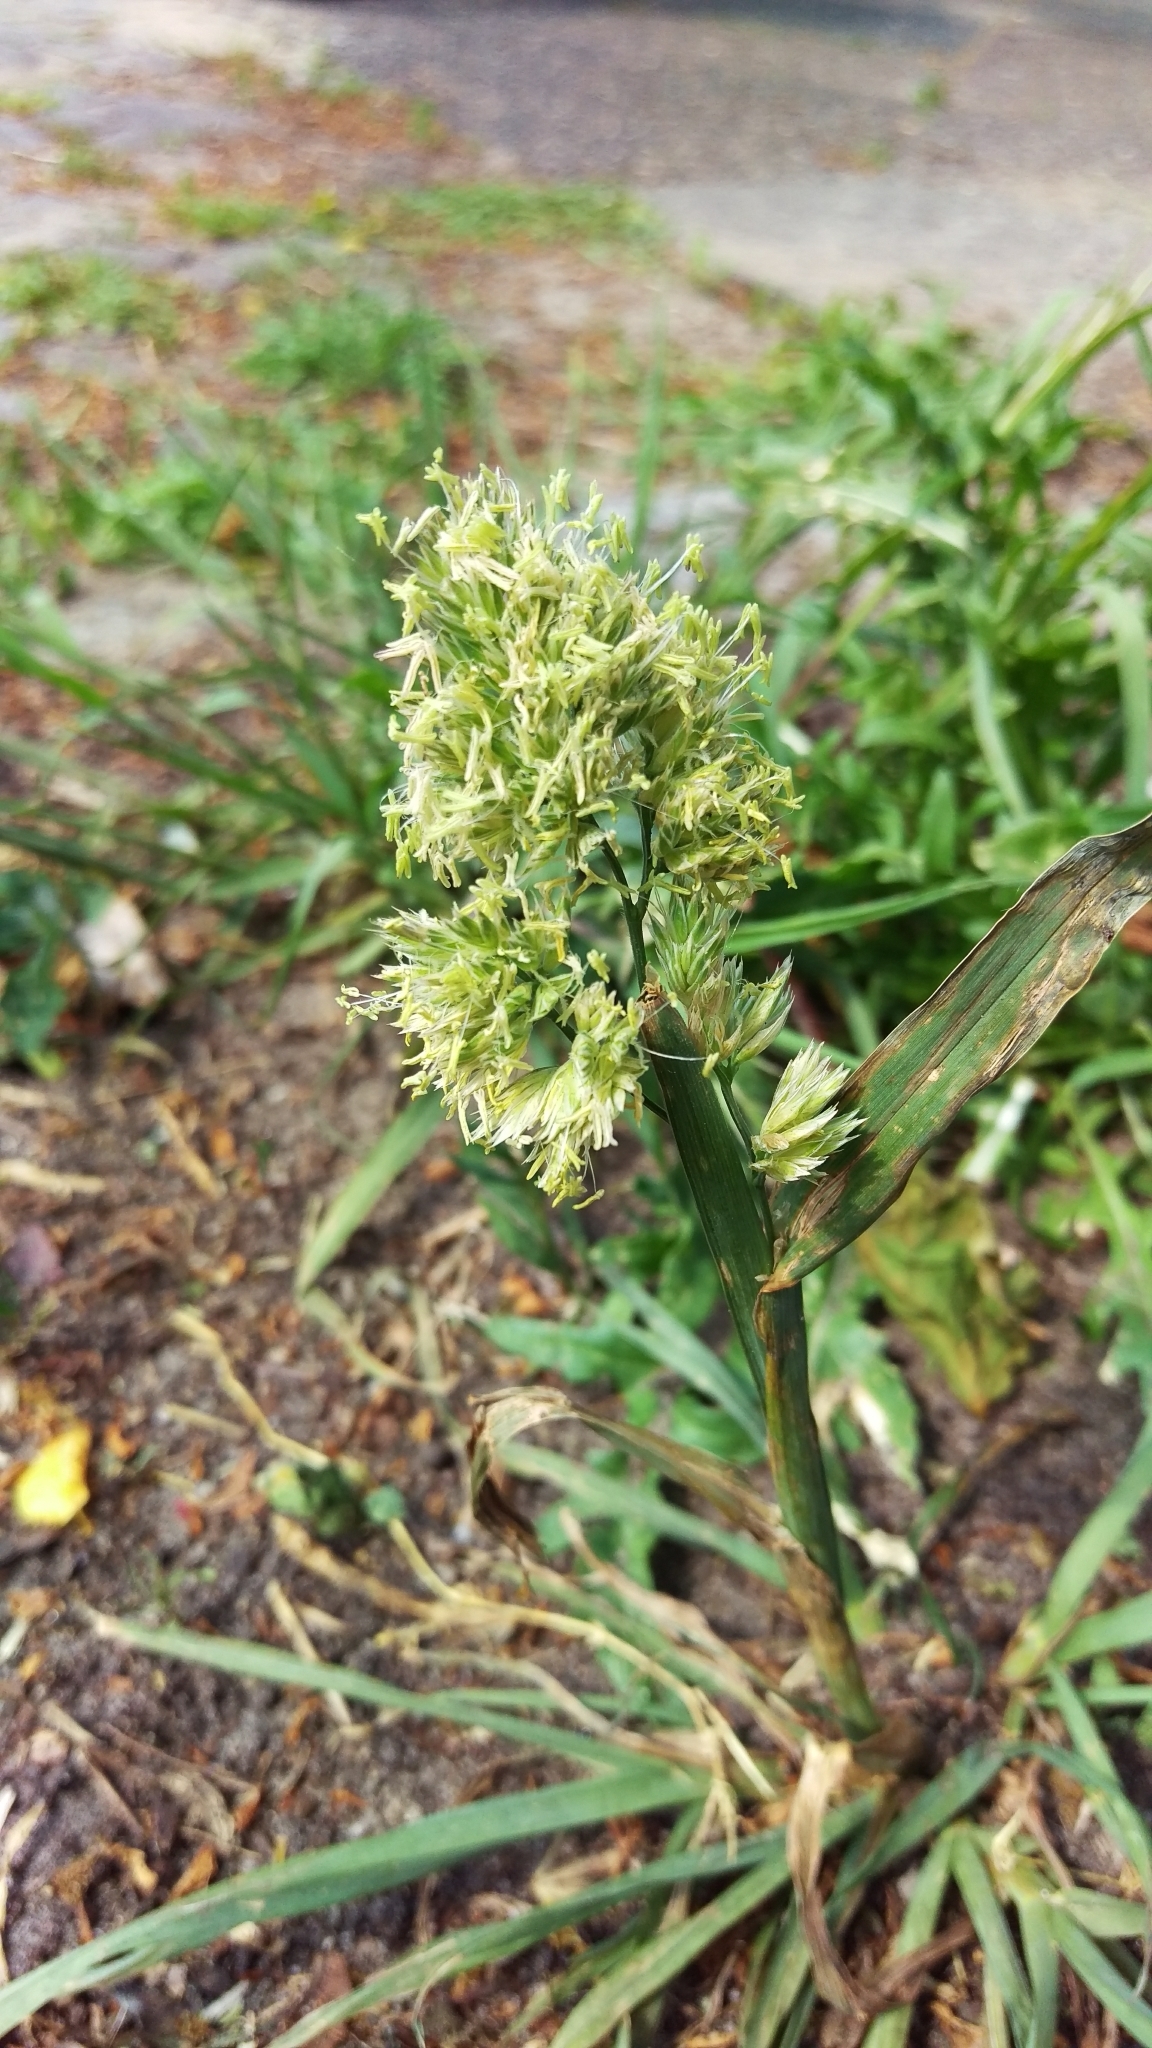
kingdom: Plantae
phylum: Tracheophyta
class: Liliopsida
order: Poales
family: Poaceae
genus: Dactylis
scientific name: Dactylis glomerata
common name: Orchardgrass
